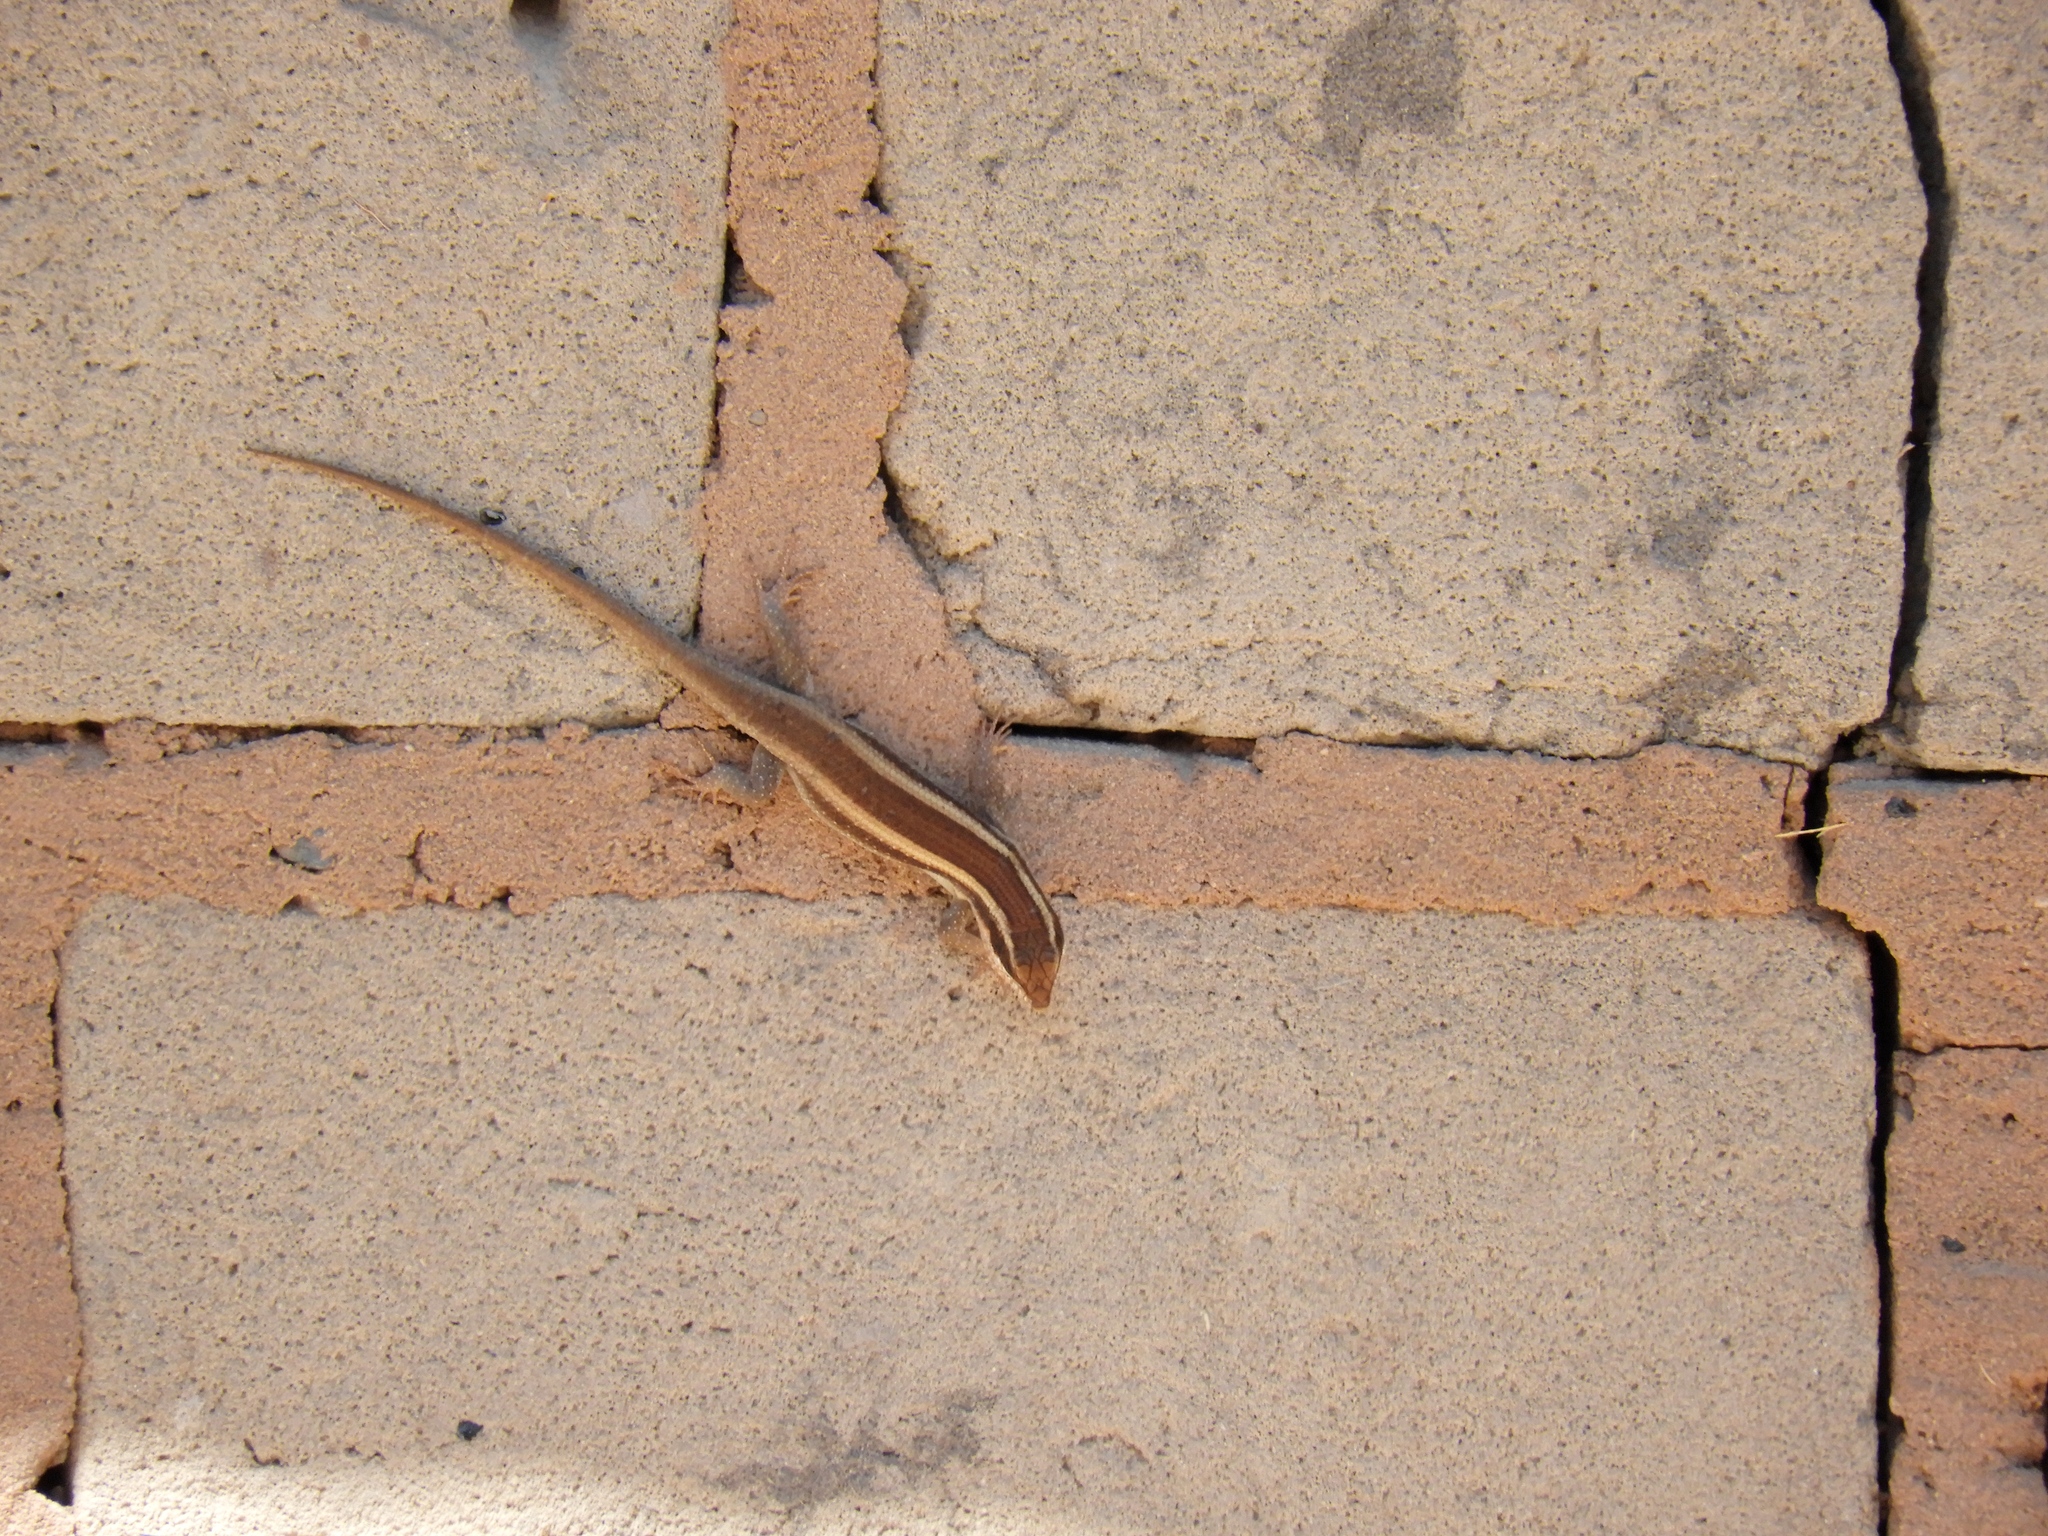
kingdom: Animalia
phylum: Chordata
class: Squamata
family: Scincidae
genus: Trachylepis
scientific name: Trachylepis striata
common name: African striped mabuya
